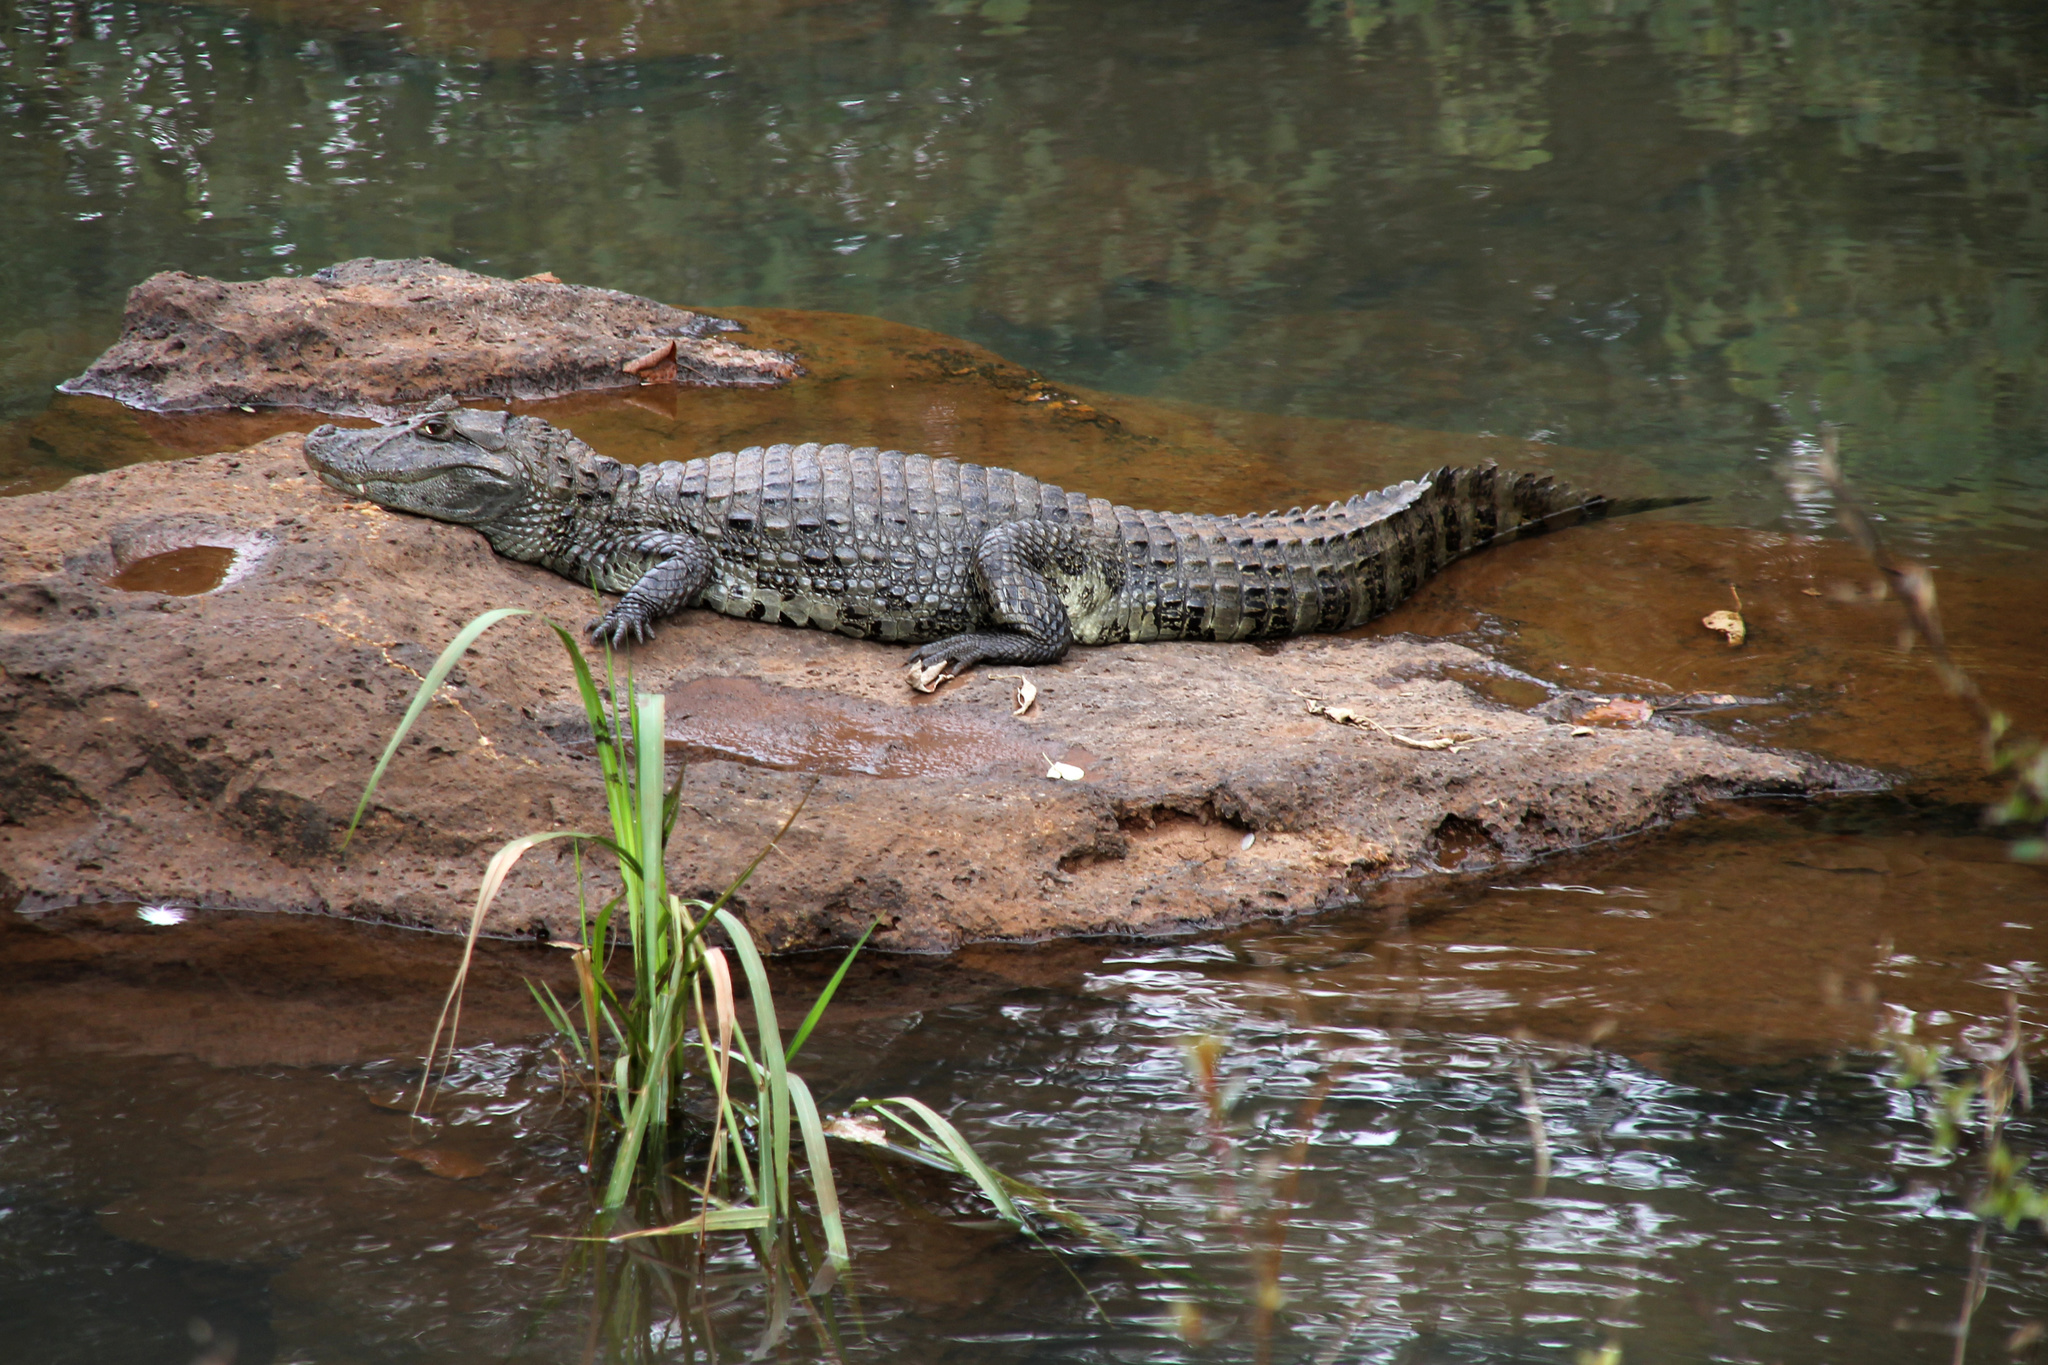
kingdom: Animalia
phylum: Chordata
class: Crocodylia
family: Alligatoridae
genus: Caiman
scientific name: Caiman latirostris
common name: Broad-snouted caiman
